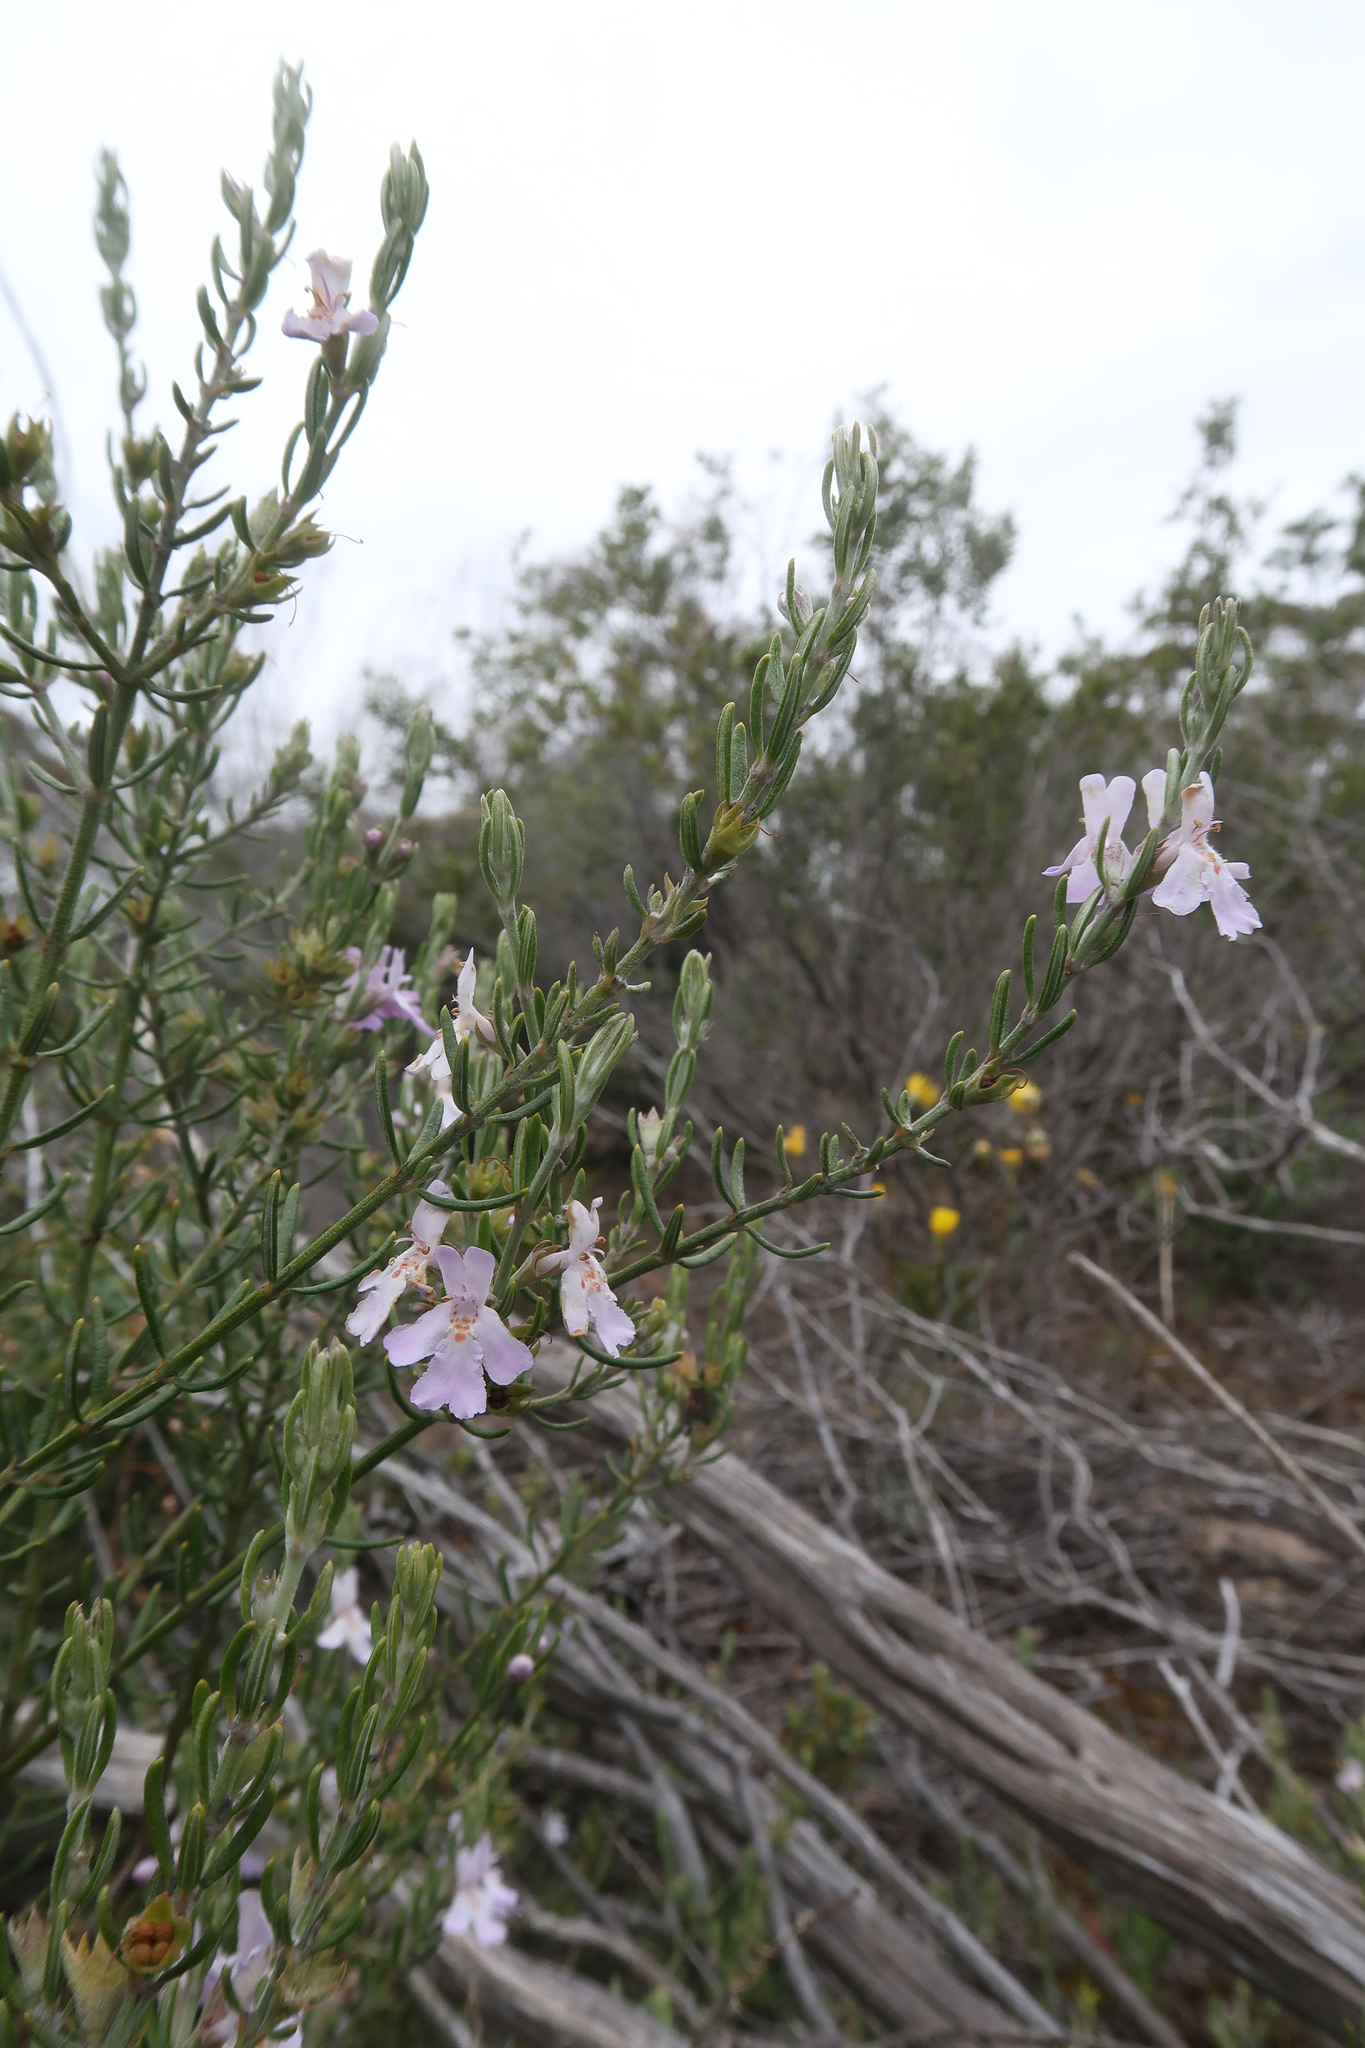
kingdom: Plantae
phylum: Tracheophyta
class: Magnoliopsida
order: Lamiales
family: Lamiaceae
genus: Westringia
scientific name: Westringia eremicola
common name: Slender western-rosemary
